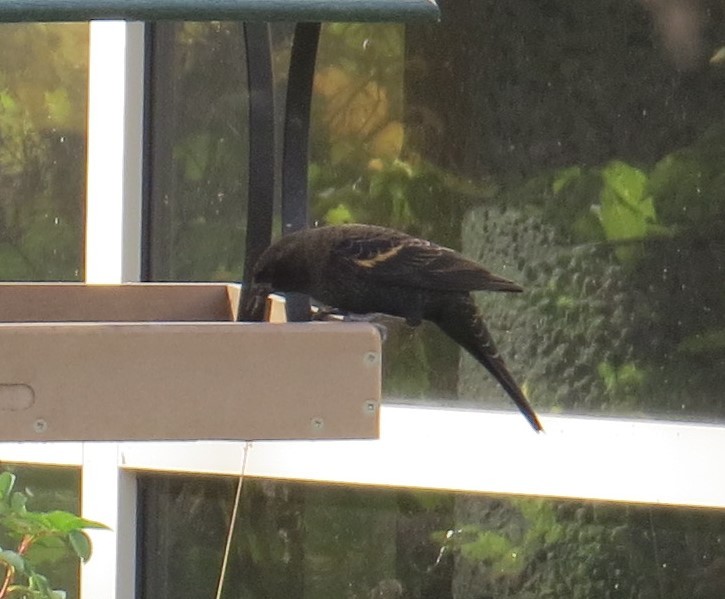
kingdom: Animalia
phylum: Chordata
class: Aves
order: Passeriformes
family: Icteridae
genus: Agelaius
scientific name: Agelaius phoeniceus
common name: Red-winged blackbird
